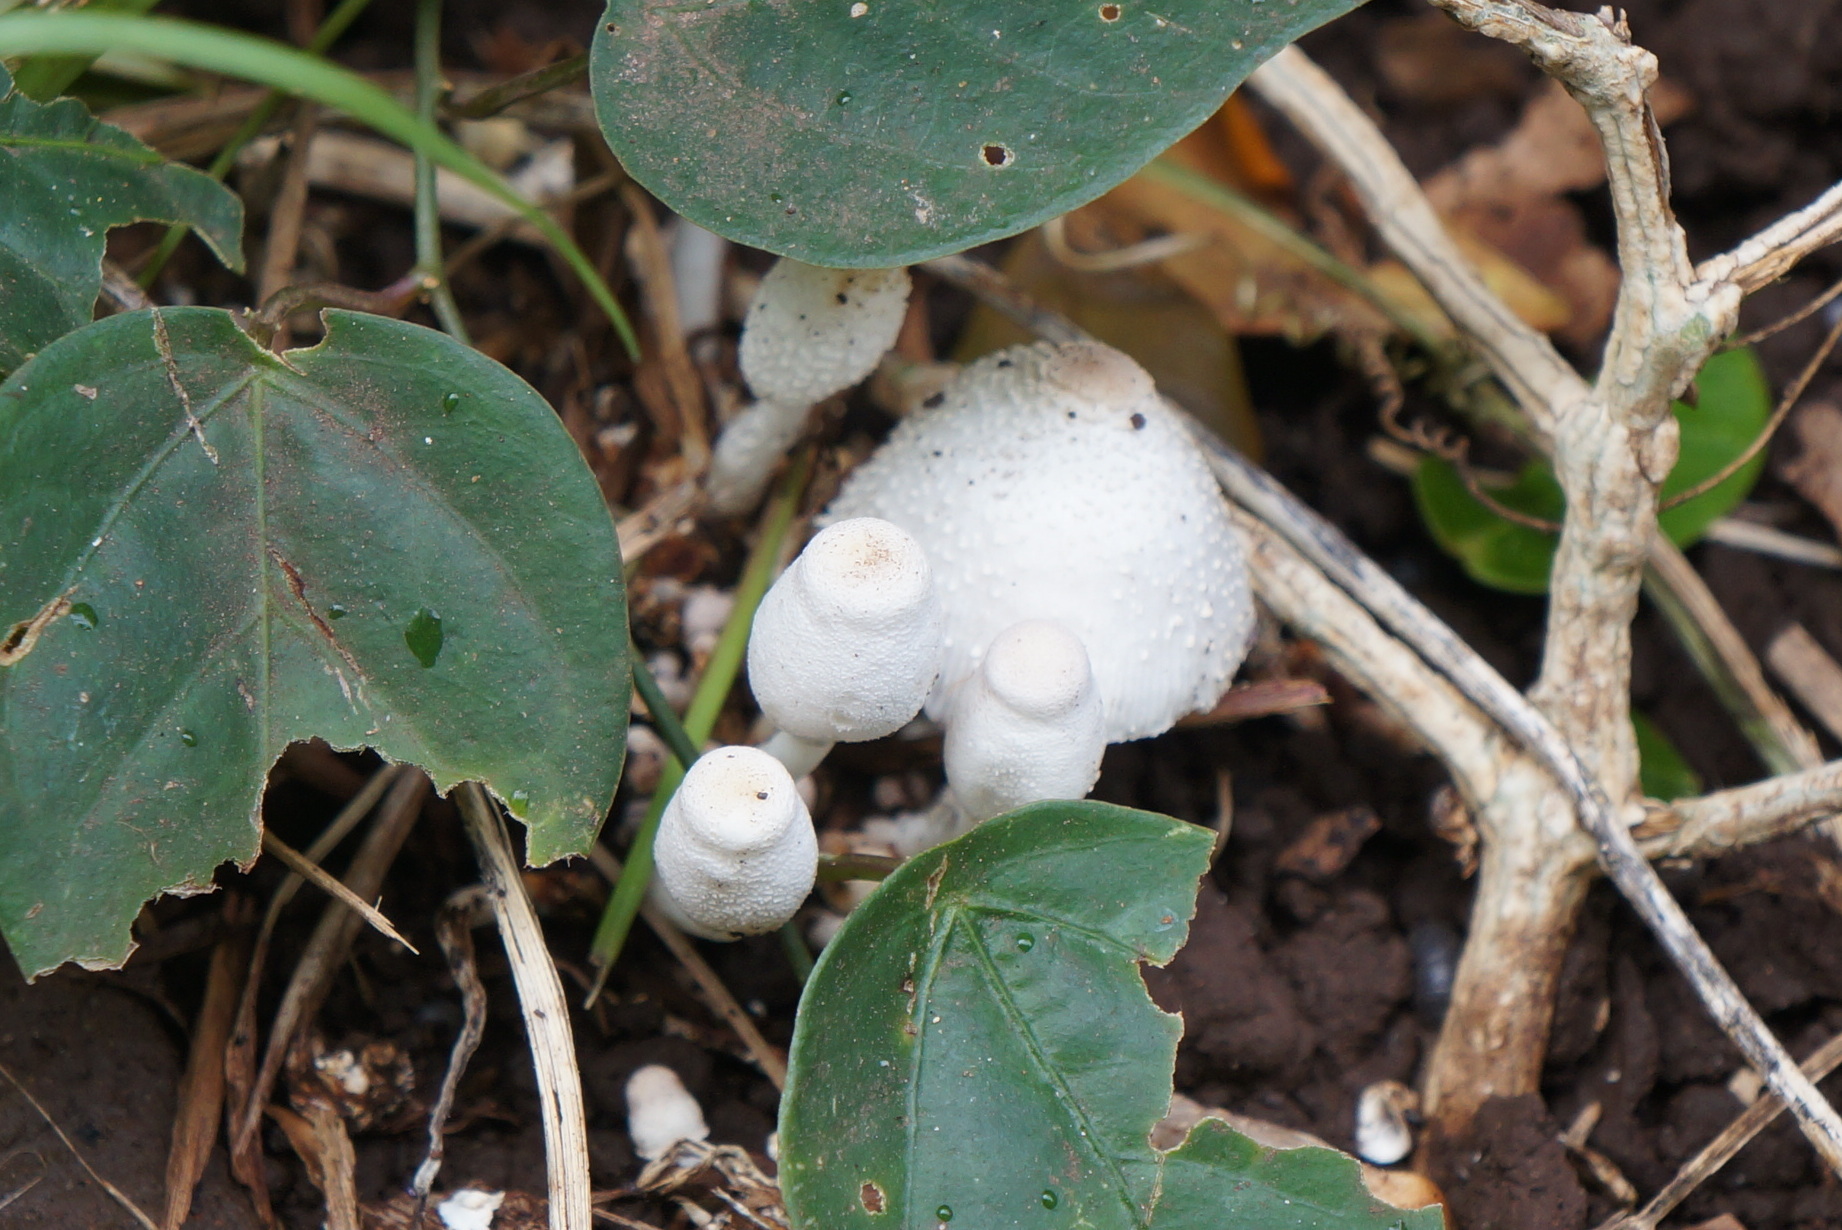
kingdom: Fungi
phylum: Basidiomycota
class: Agaricomycetes
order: Agaricales
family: Agaricaceae
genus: Leucocoprinus
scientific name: Leucocoprinus cepistipes
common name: Onion-stalk parasol
